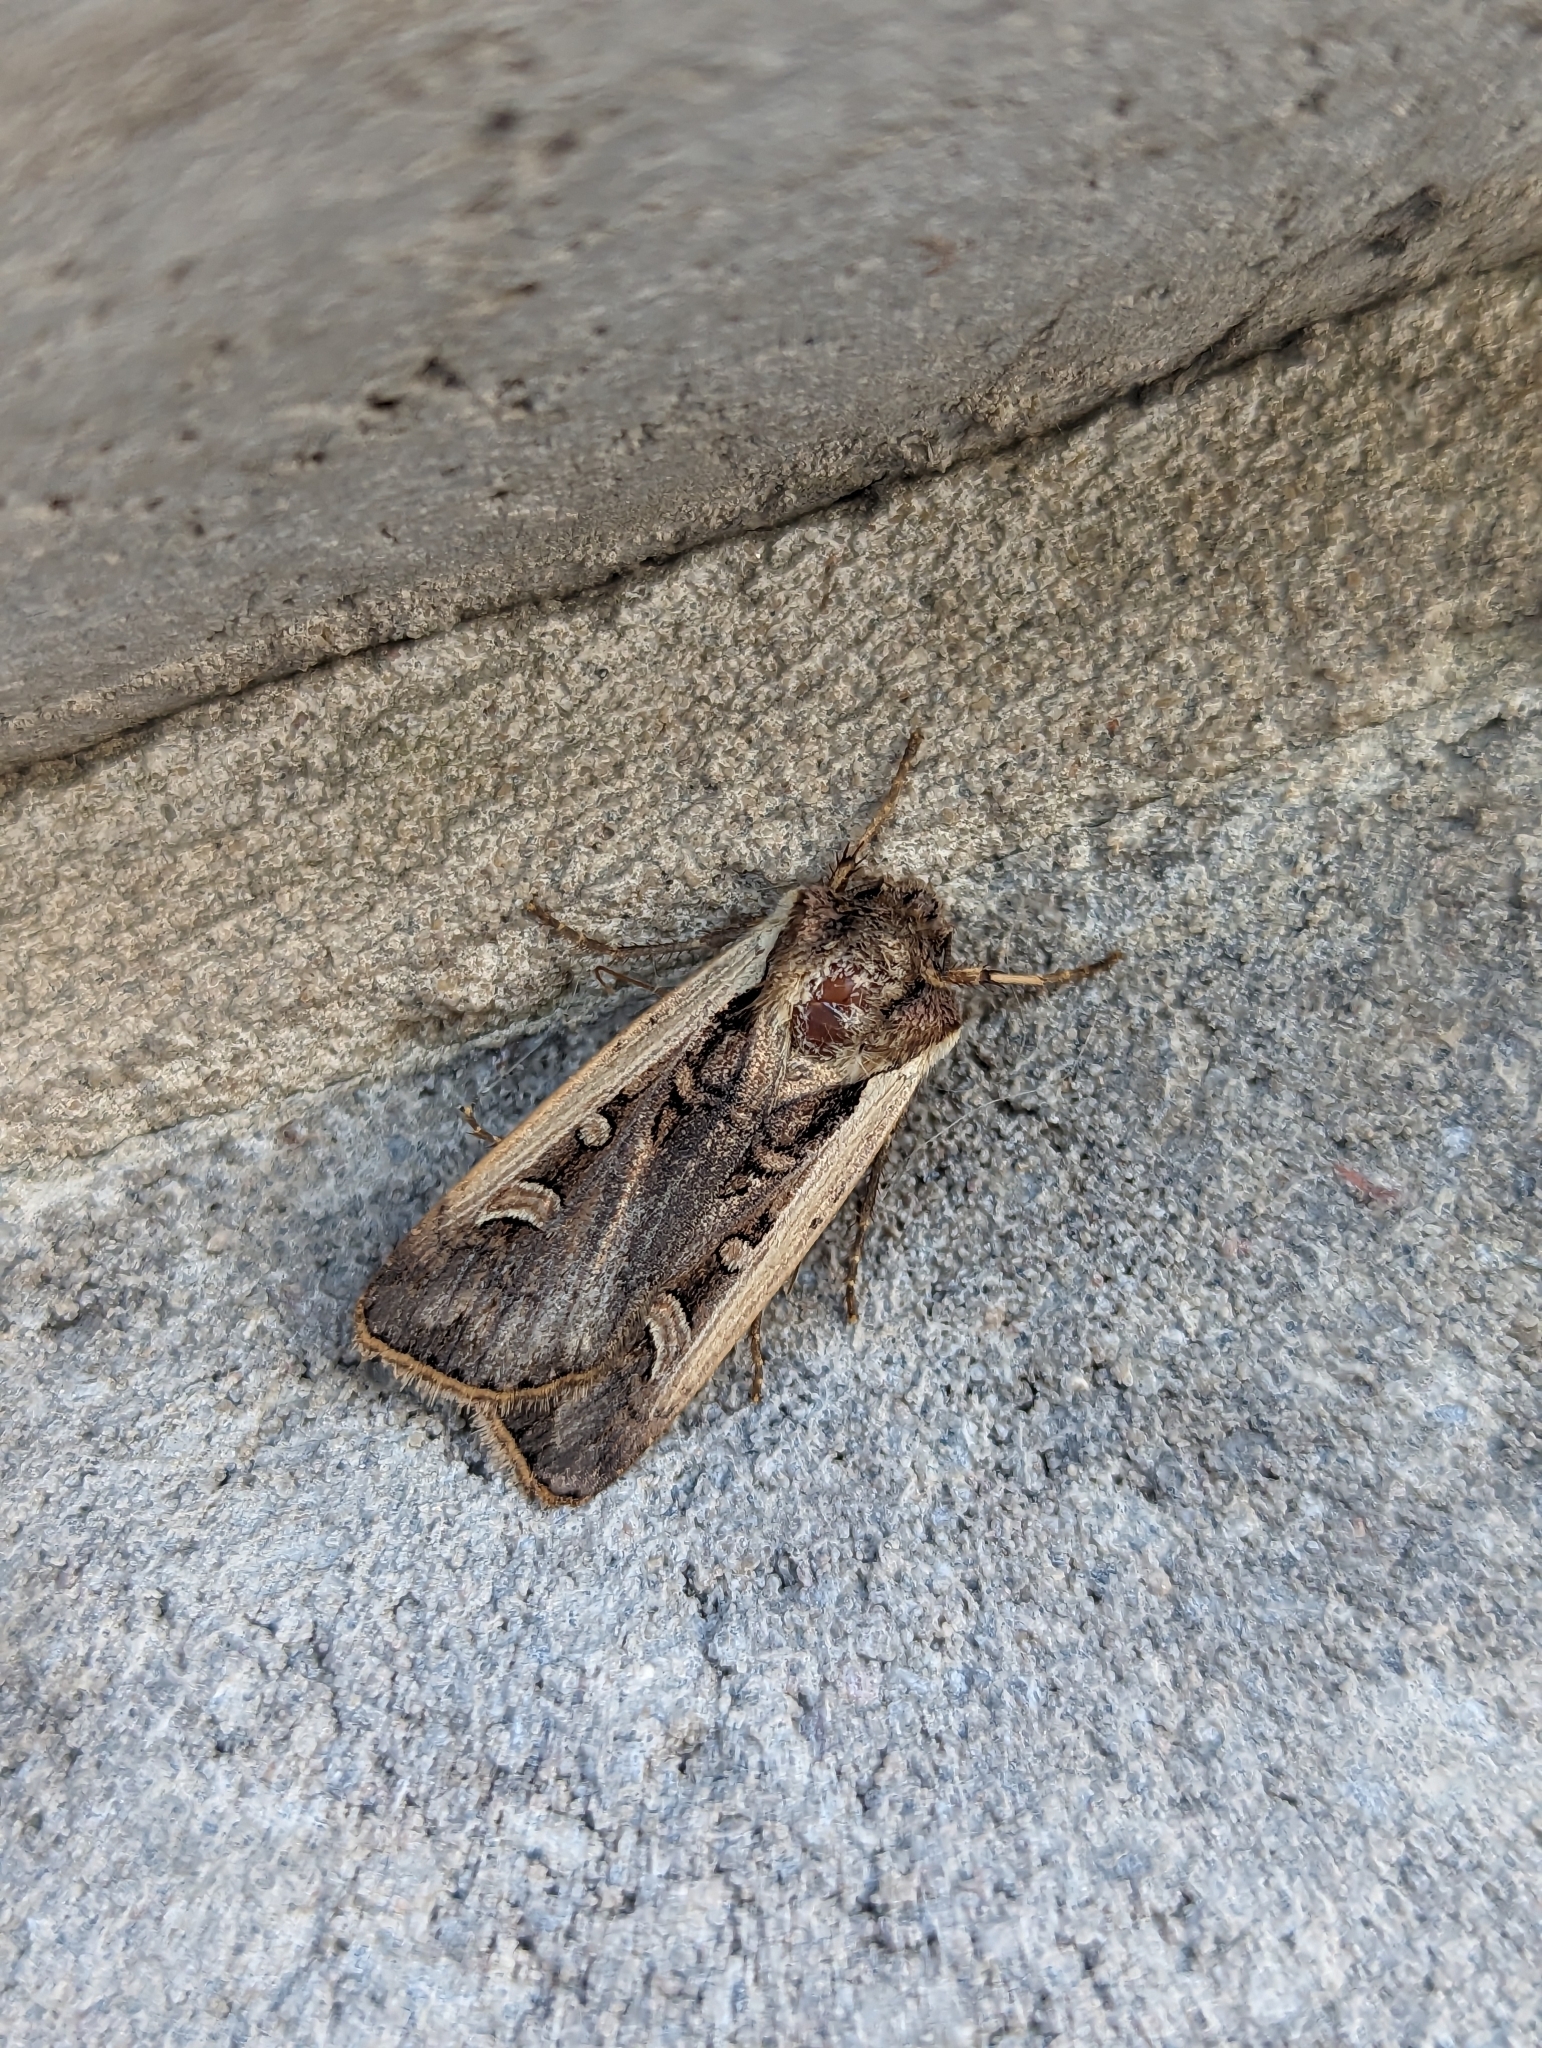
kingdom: Animalia
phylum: Arthropoda
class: Insecta
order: Lepidoptera
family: Noctuidae
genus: Striacosta
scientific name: Striacosta albicosta
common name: Western bean cutworm moth
